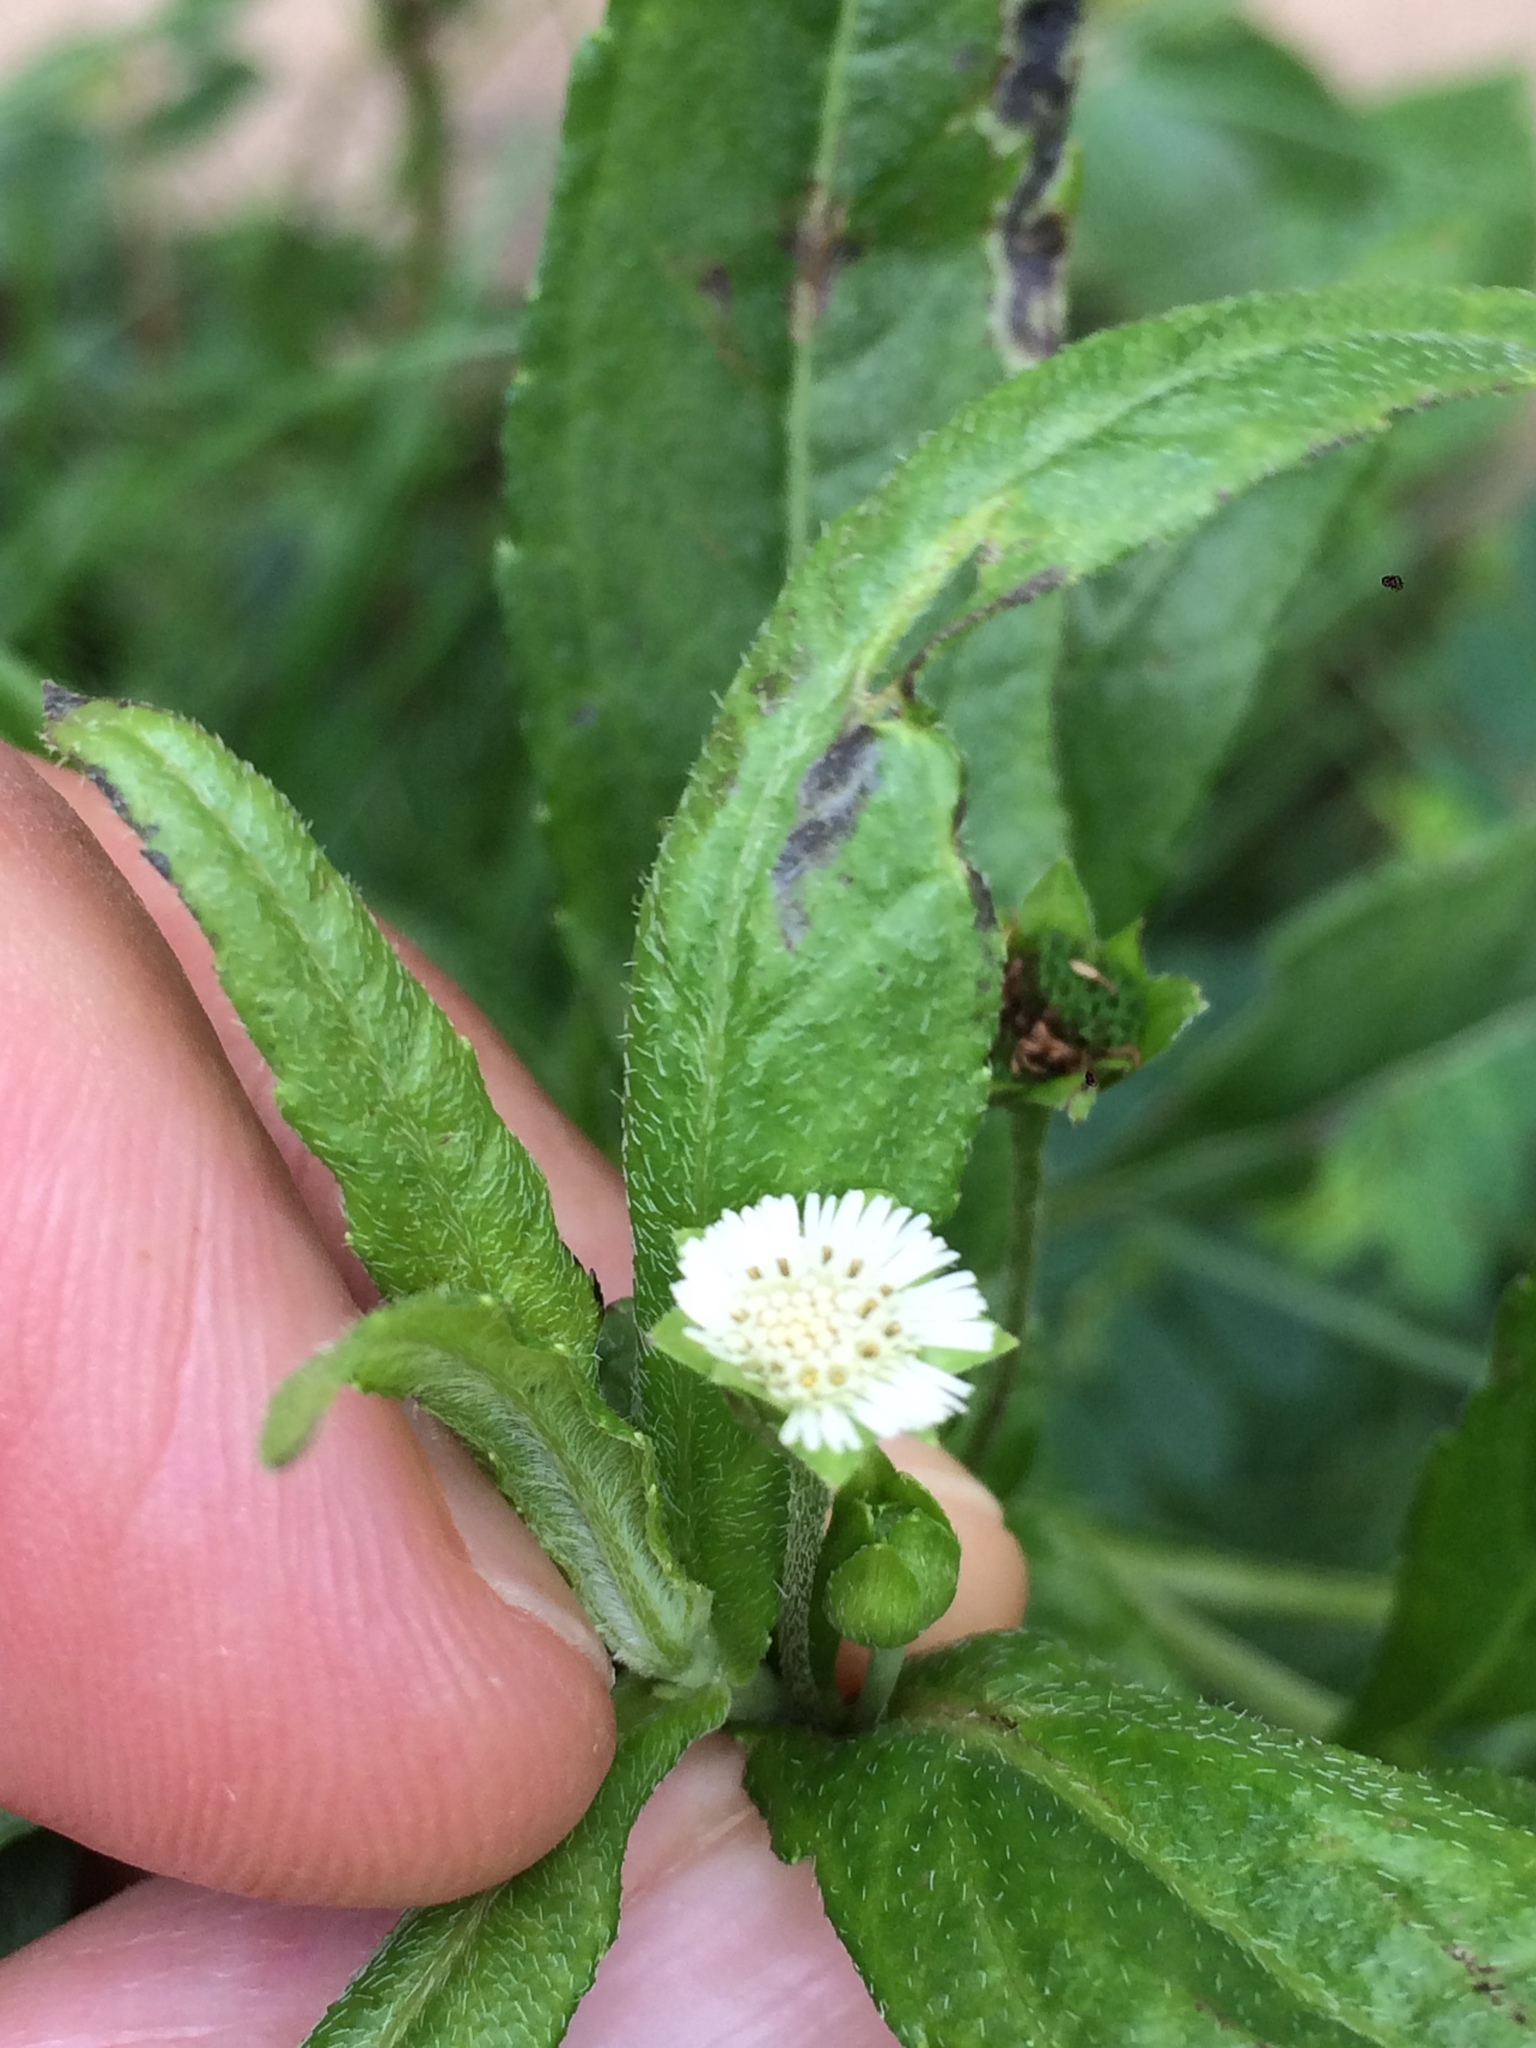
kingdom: Plantae
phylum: Tracheophyta
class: Magnoliopsida
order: Asterales
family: Asteraceae
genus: Eclipta
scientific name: Eclipta prostrata
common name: False daisy
